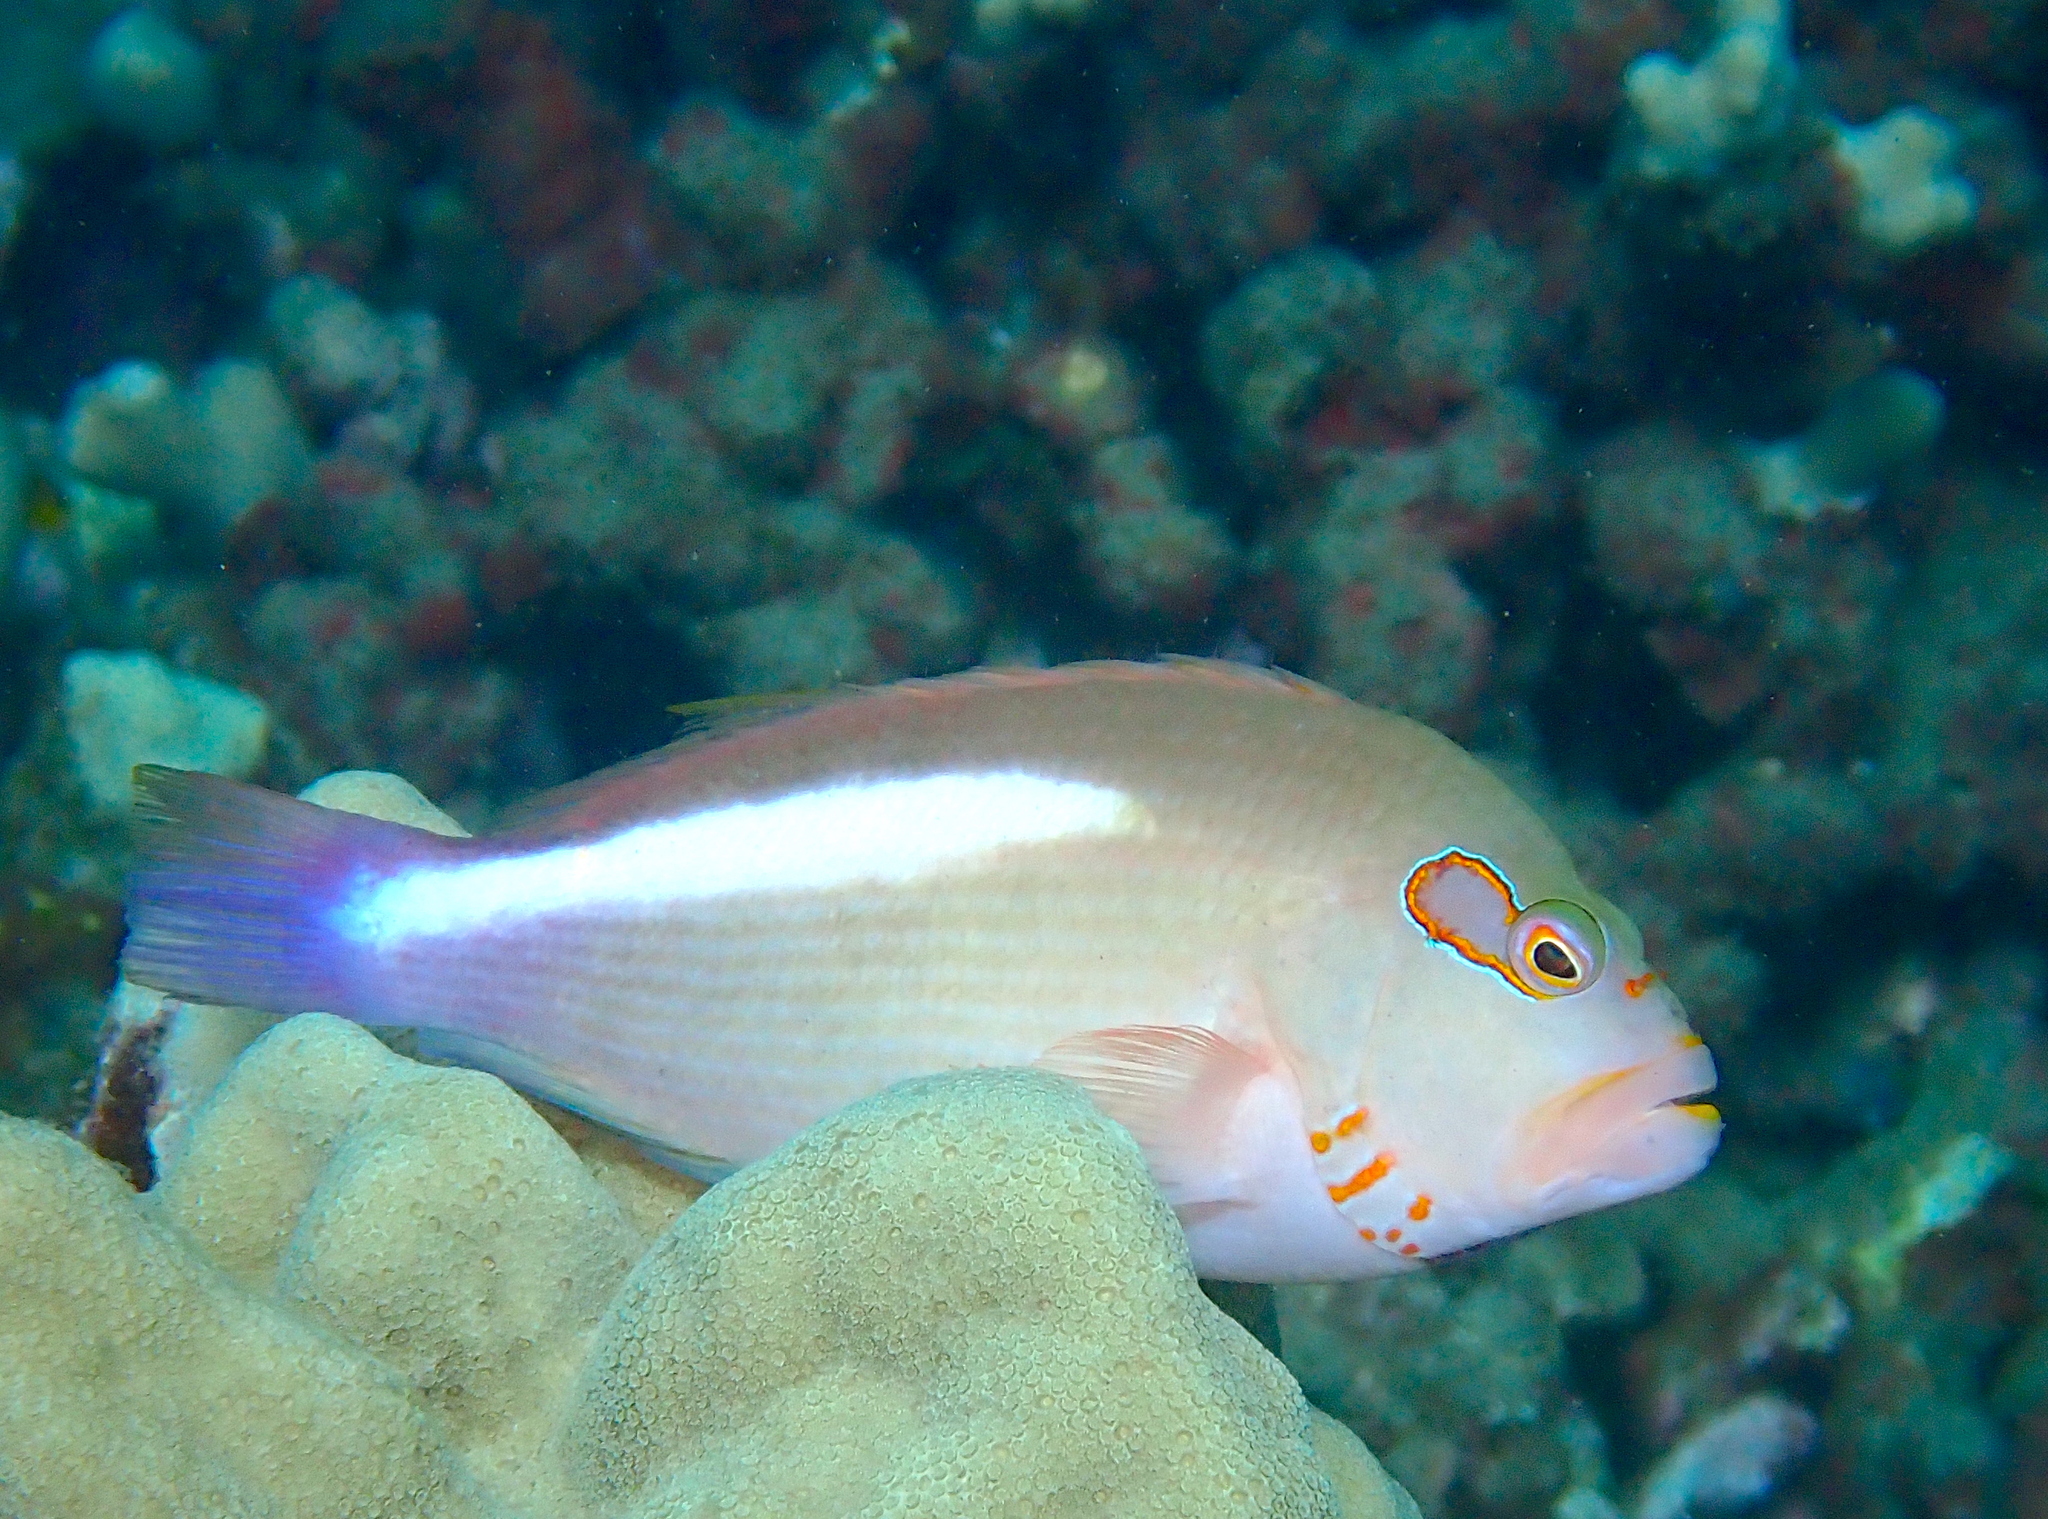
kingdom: Animalia
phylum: Chordata
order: Perciformes
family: Cirrhitidae
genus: Paracirrhites
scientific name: Paracirrhites arcatus
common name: Arc-eye hawkfish
